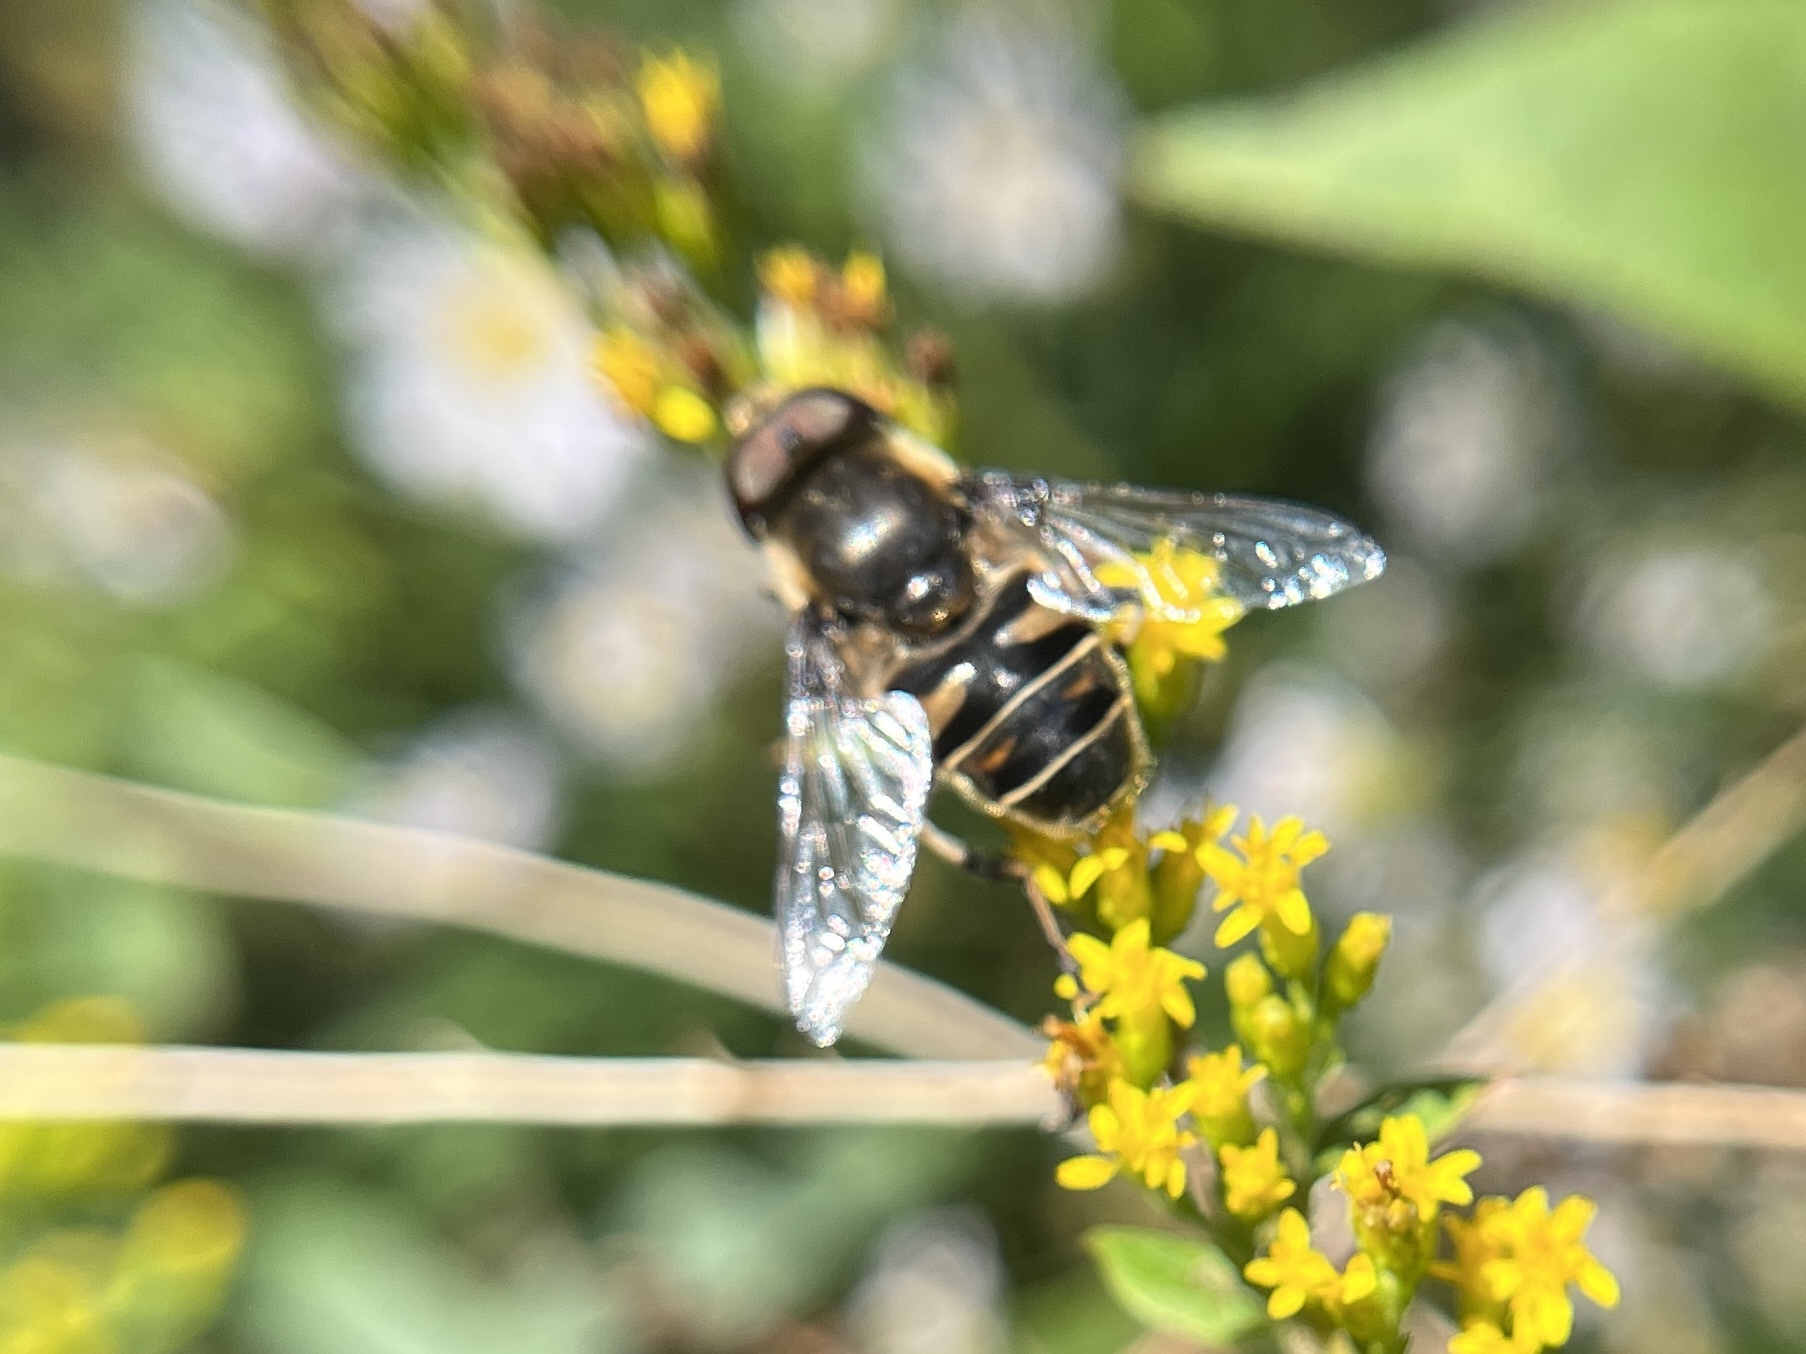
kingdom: Animalia
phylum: Arthropoda
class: Insecta
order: Diptera
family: Syrphidae
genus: Eristalis
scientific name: Eristalis dimidiata
